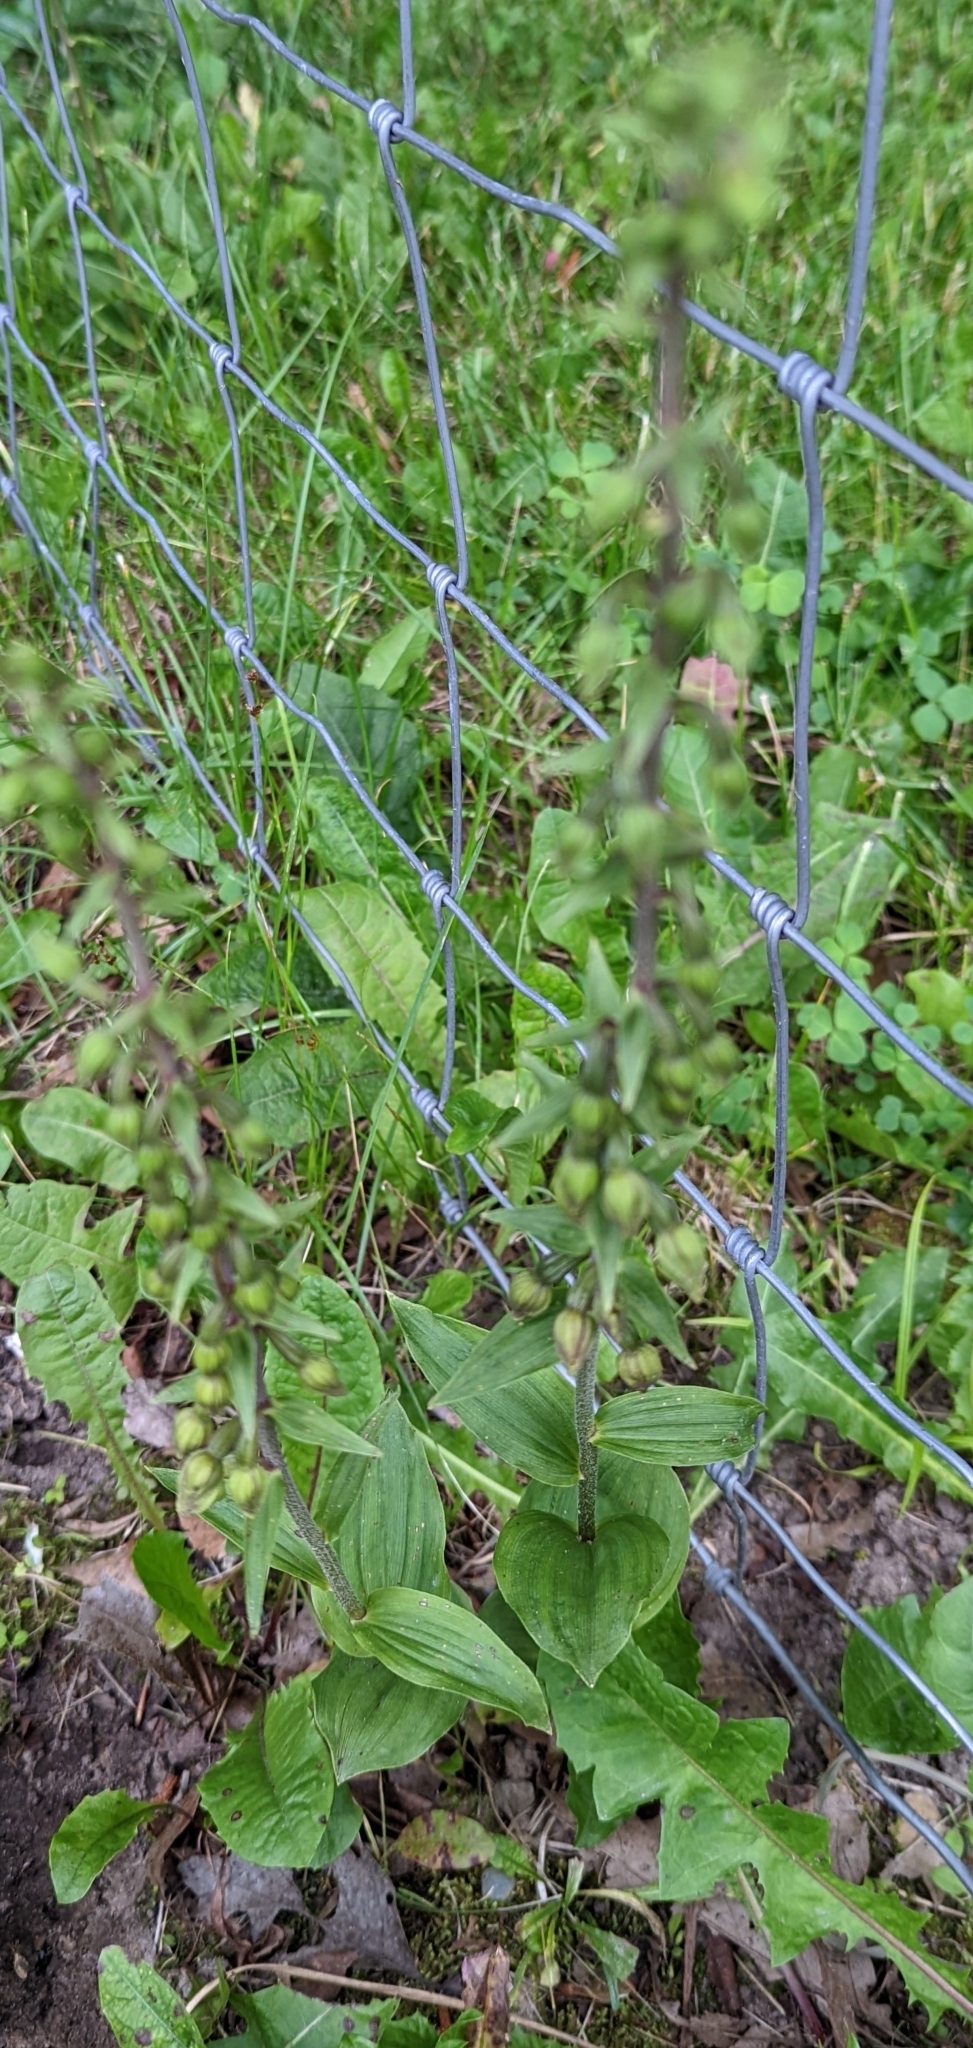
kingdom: Plantae
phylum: Tracheophyta
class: Liliopsida
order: Asparagales
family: Orchidaceae
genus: Epipactis
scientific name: Epipactis helleborine
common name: Broad-leaved helleborine
